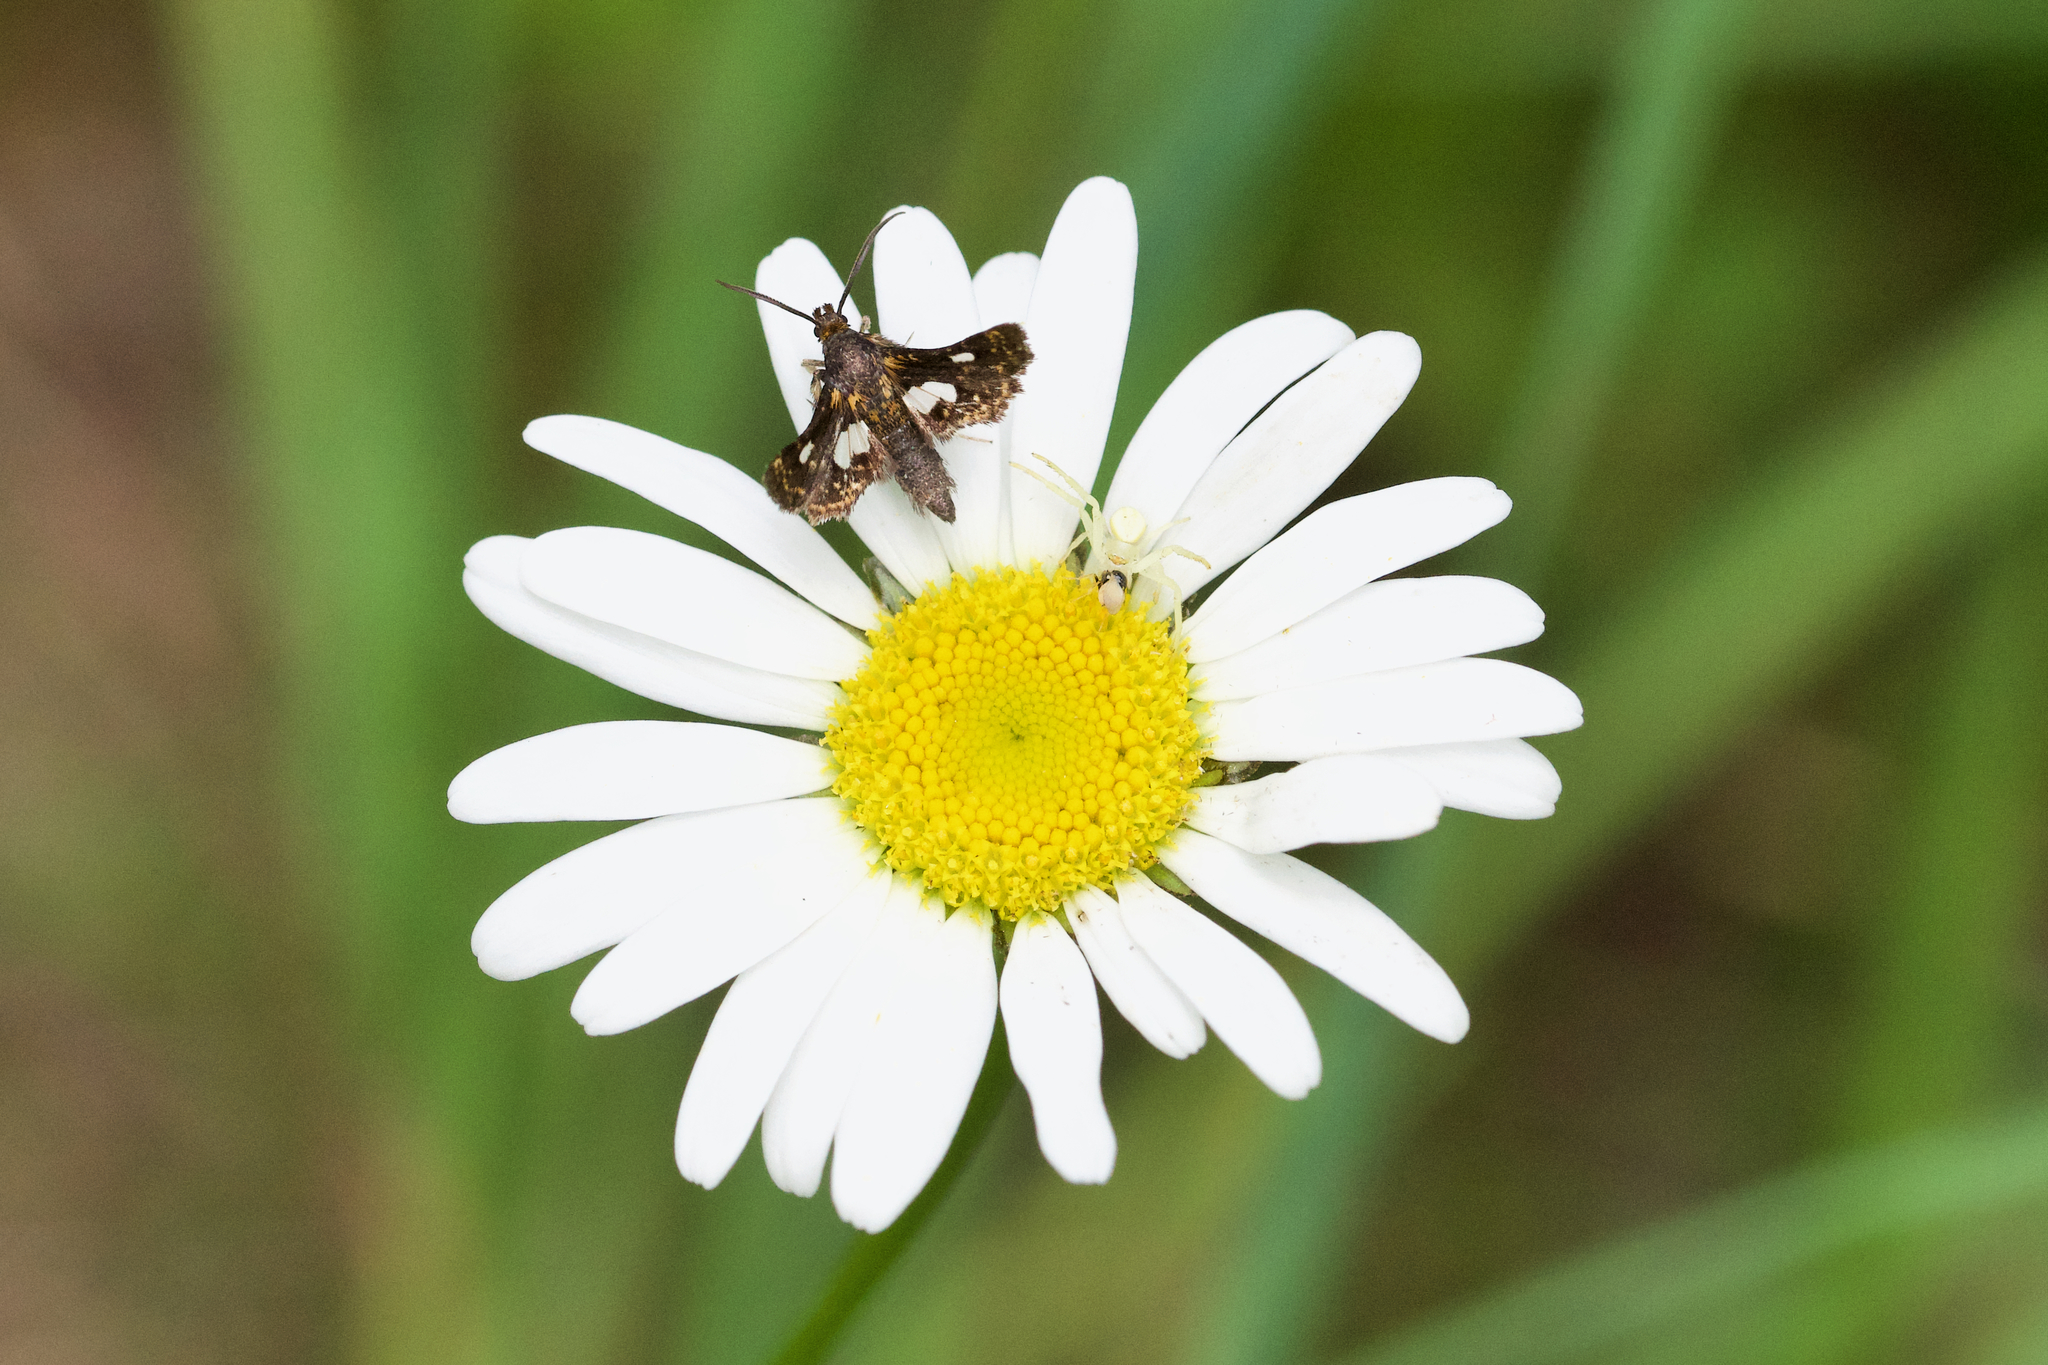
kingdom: Animalia
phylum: Arthropoda
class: Insecta
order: Lepidoptera
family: Thyrididae
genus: Thyris
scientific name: Thyris maculata
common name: Spotted thyris moth
